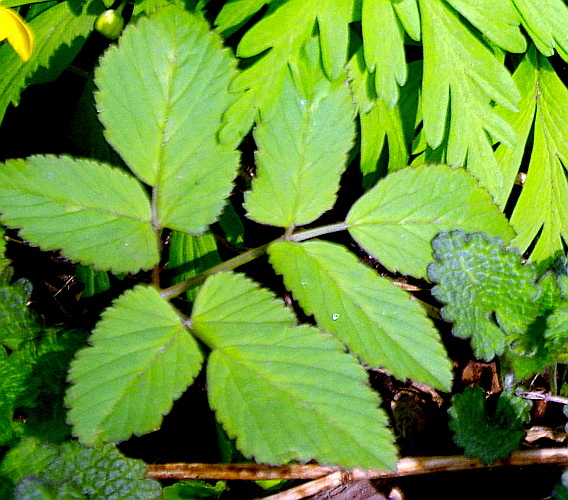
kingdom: Plantae
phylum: Tracheophyta
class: Magnoliopsida
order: Apiales
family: Apiaceae
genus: Aegopodium
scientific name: Aegopodium podagraria
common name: Ground-elder
